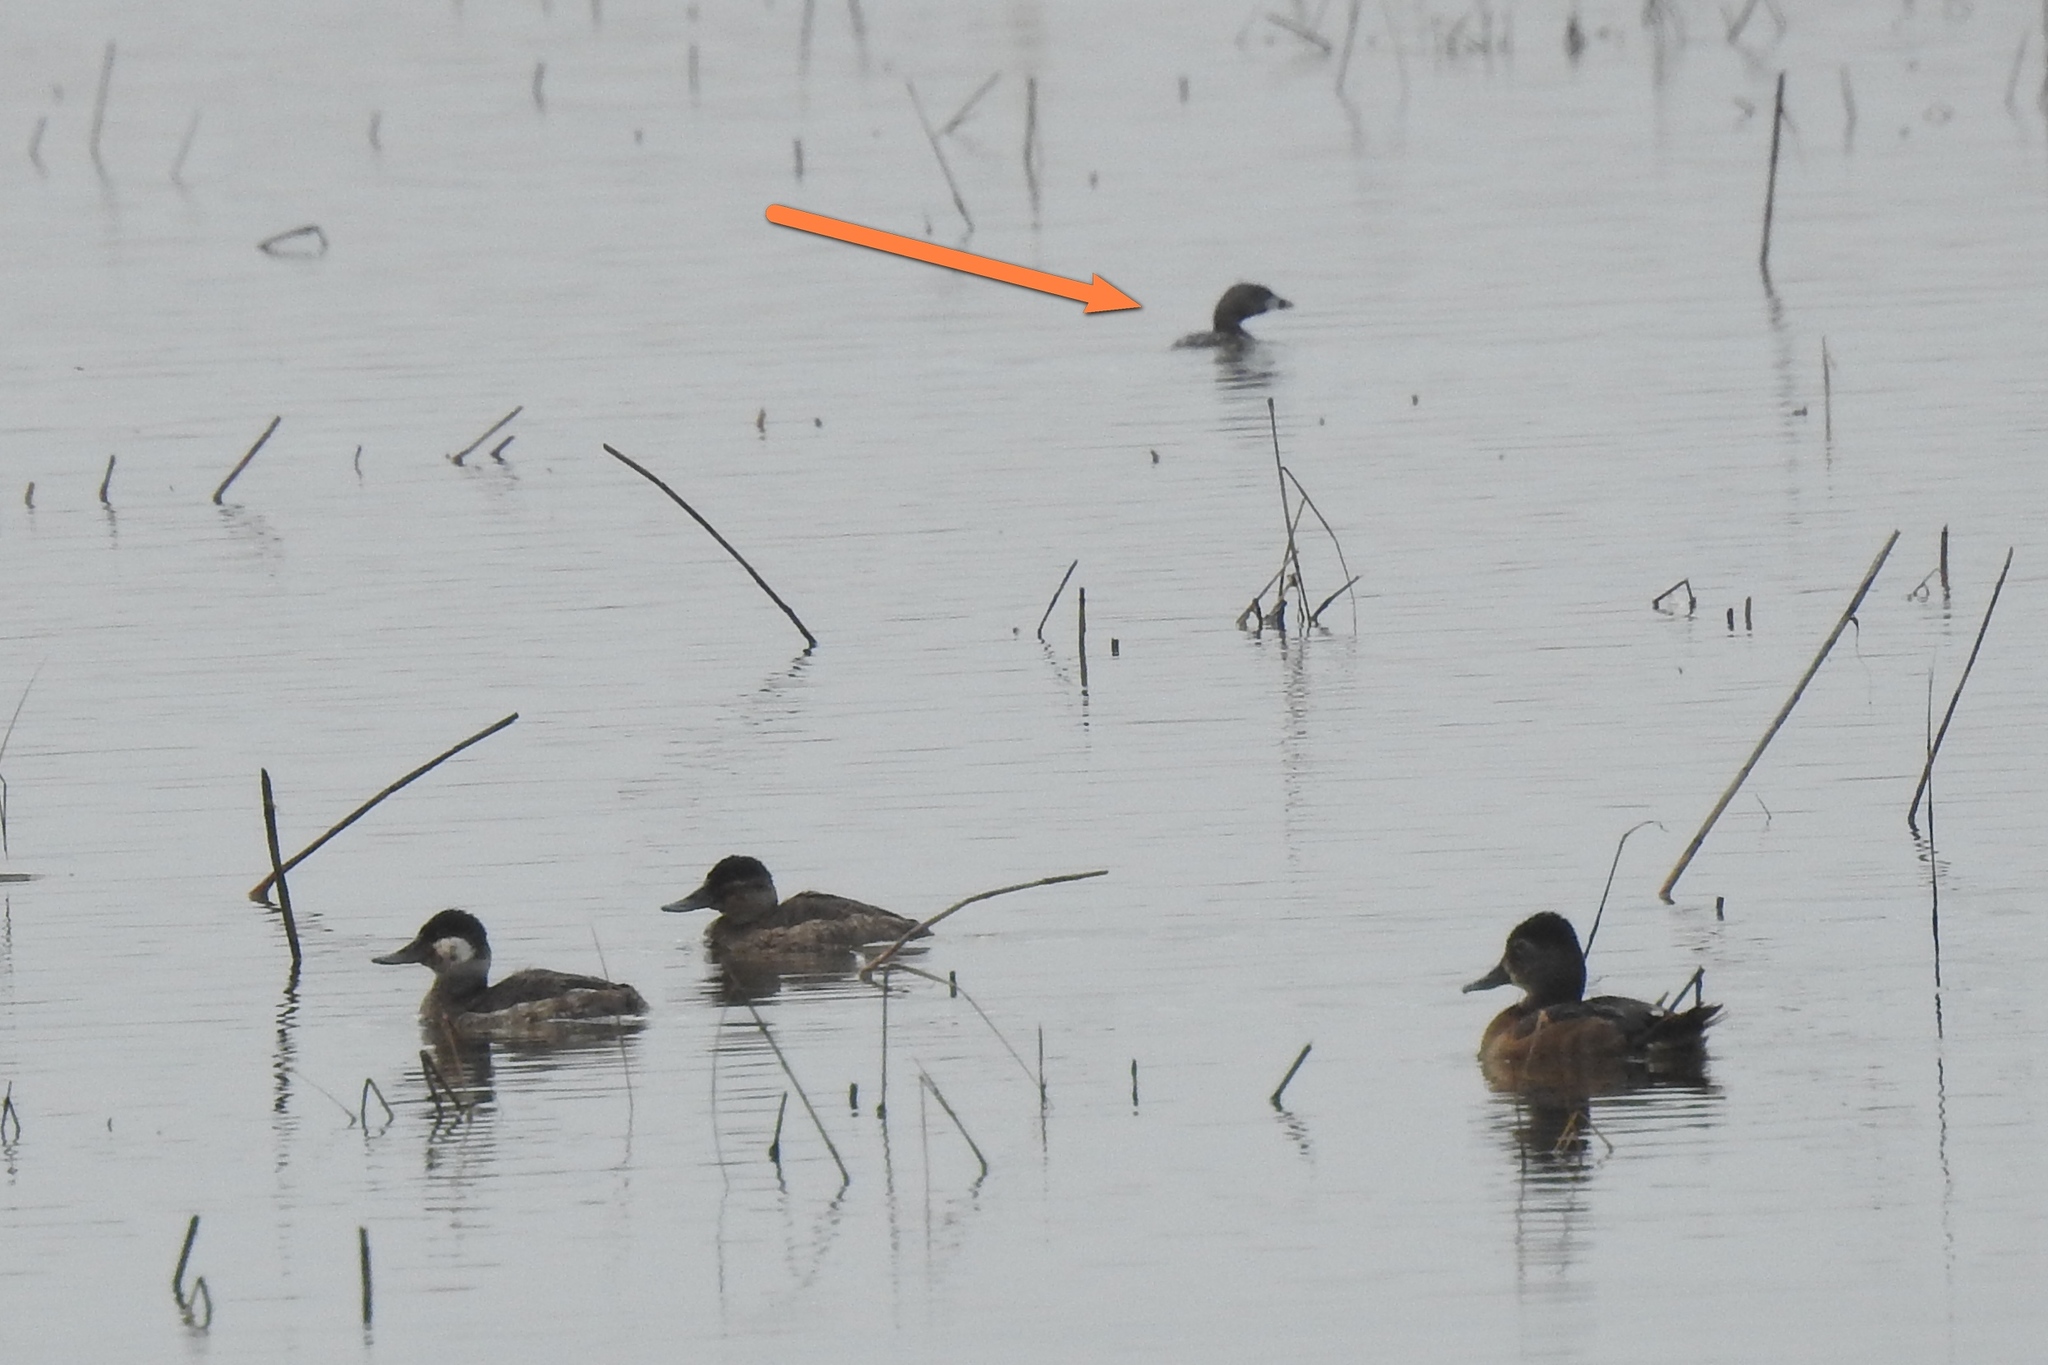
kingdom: Animalia
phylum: Chordata
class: Aves
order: Podicipediformes
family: Podicipedidae
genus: Podilymbus
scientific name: Podilymbus podiceps
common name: Pied-billed grebe
